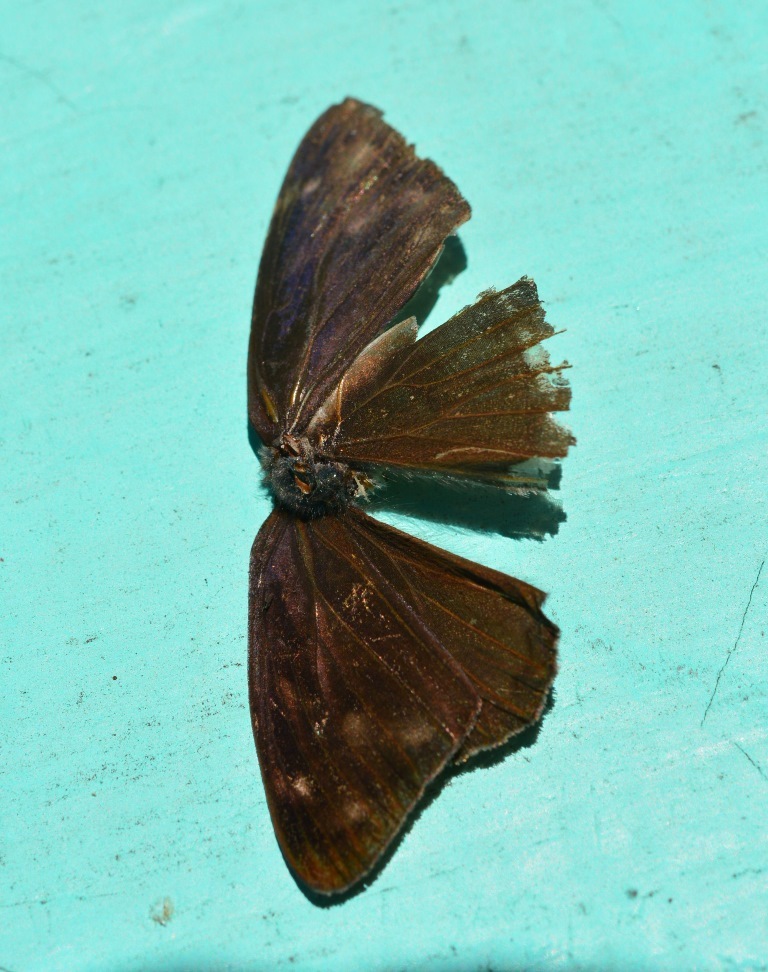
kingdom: Animalia
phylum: Arthropoda
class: Insecta
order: Lepidoptera
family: Nymphalidae
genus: Eunica
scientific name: Eunica monima
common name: Dingy purplewing
